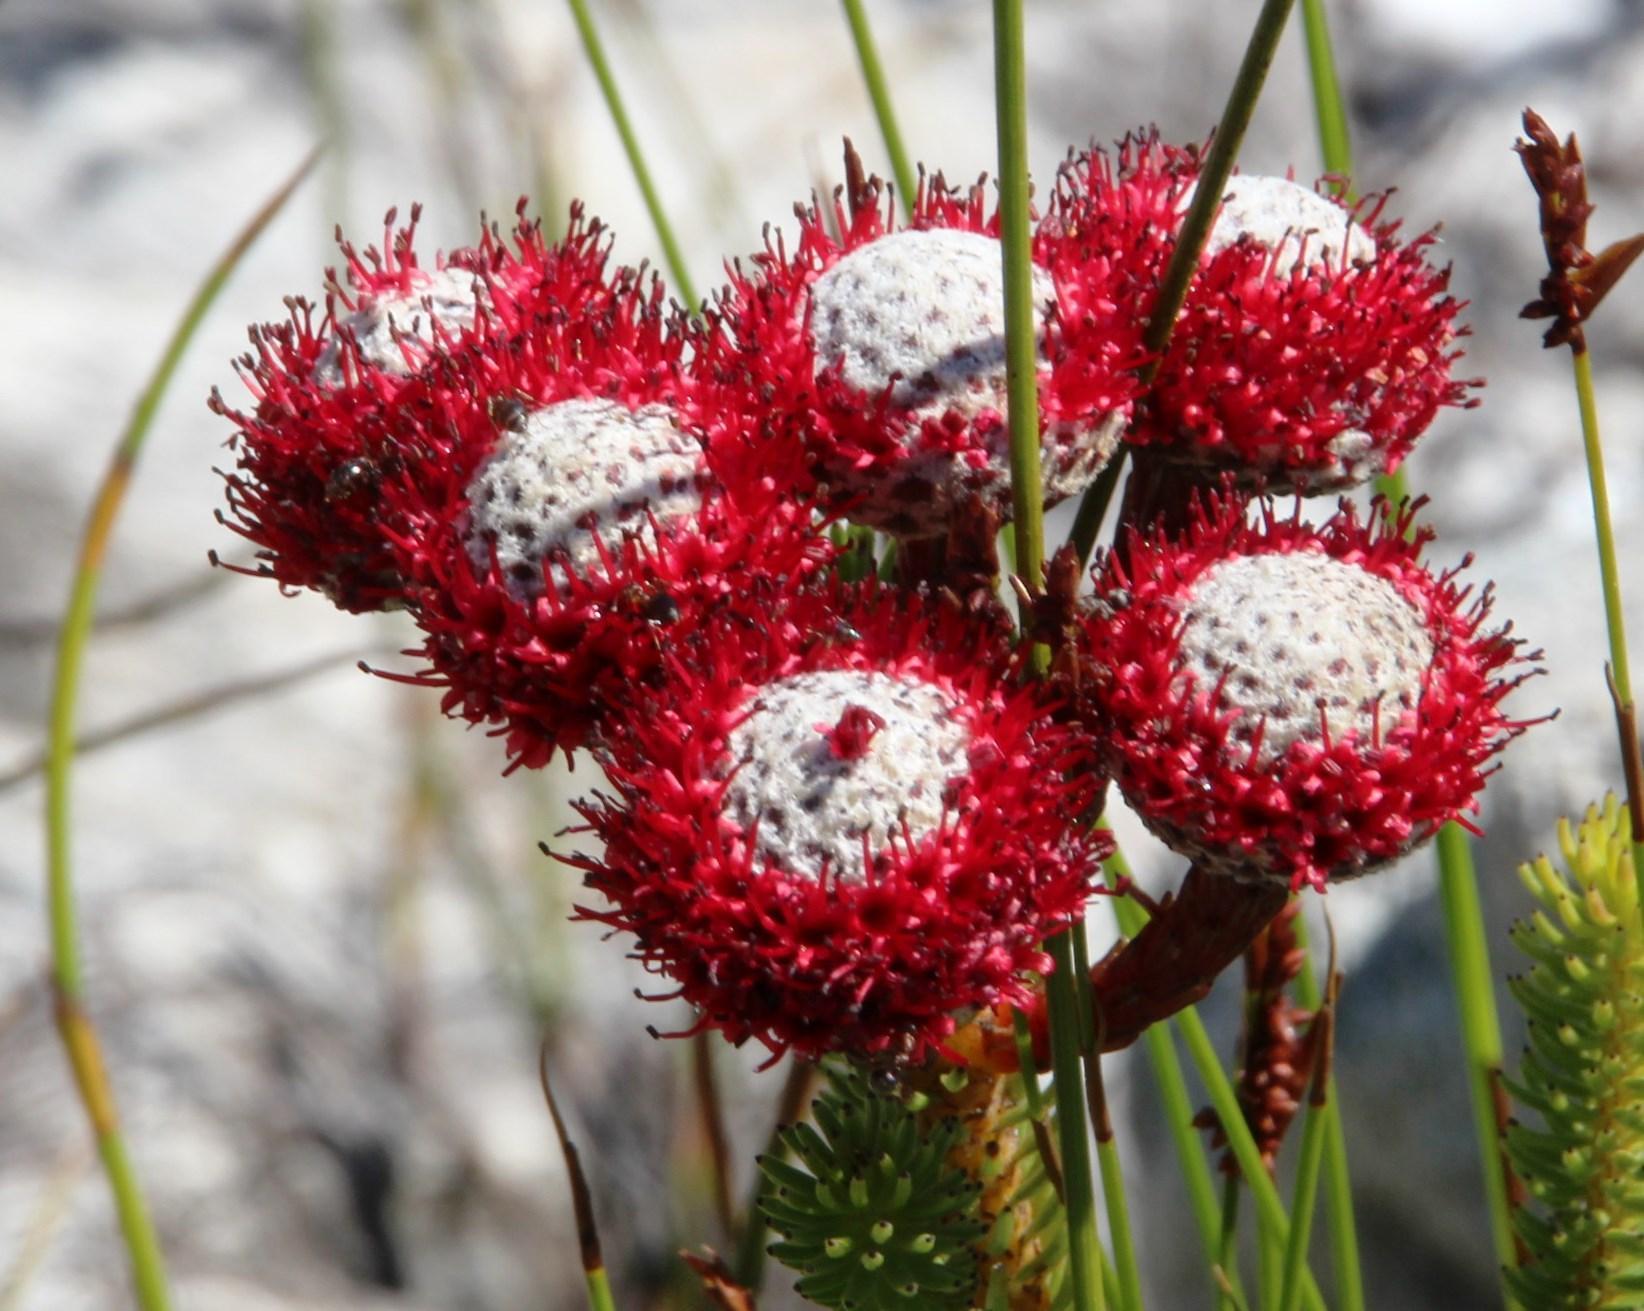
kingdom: Plantae
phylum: Tracheophyta
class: Magnoliopsida
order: Bruniales
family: Bruniaceae
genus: Berzelia
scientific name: Berzelia stokoei
